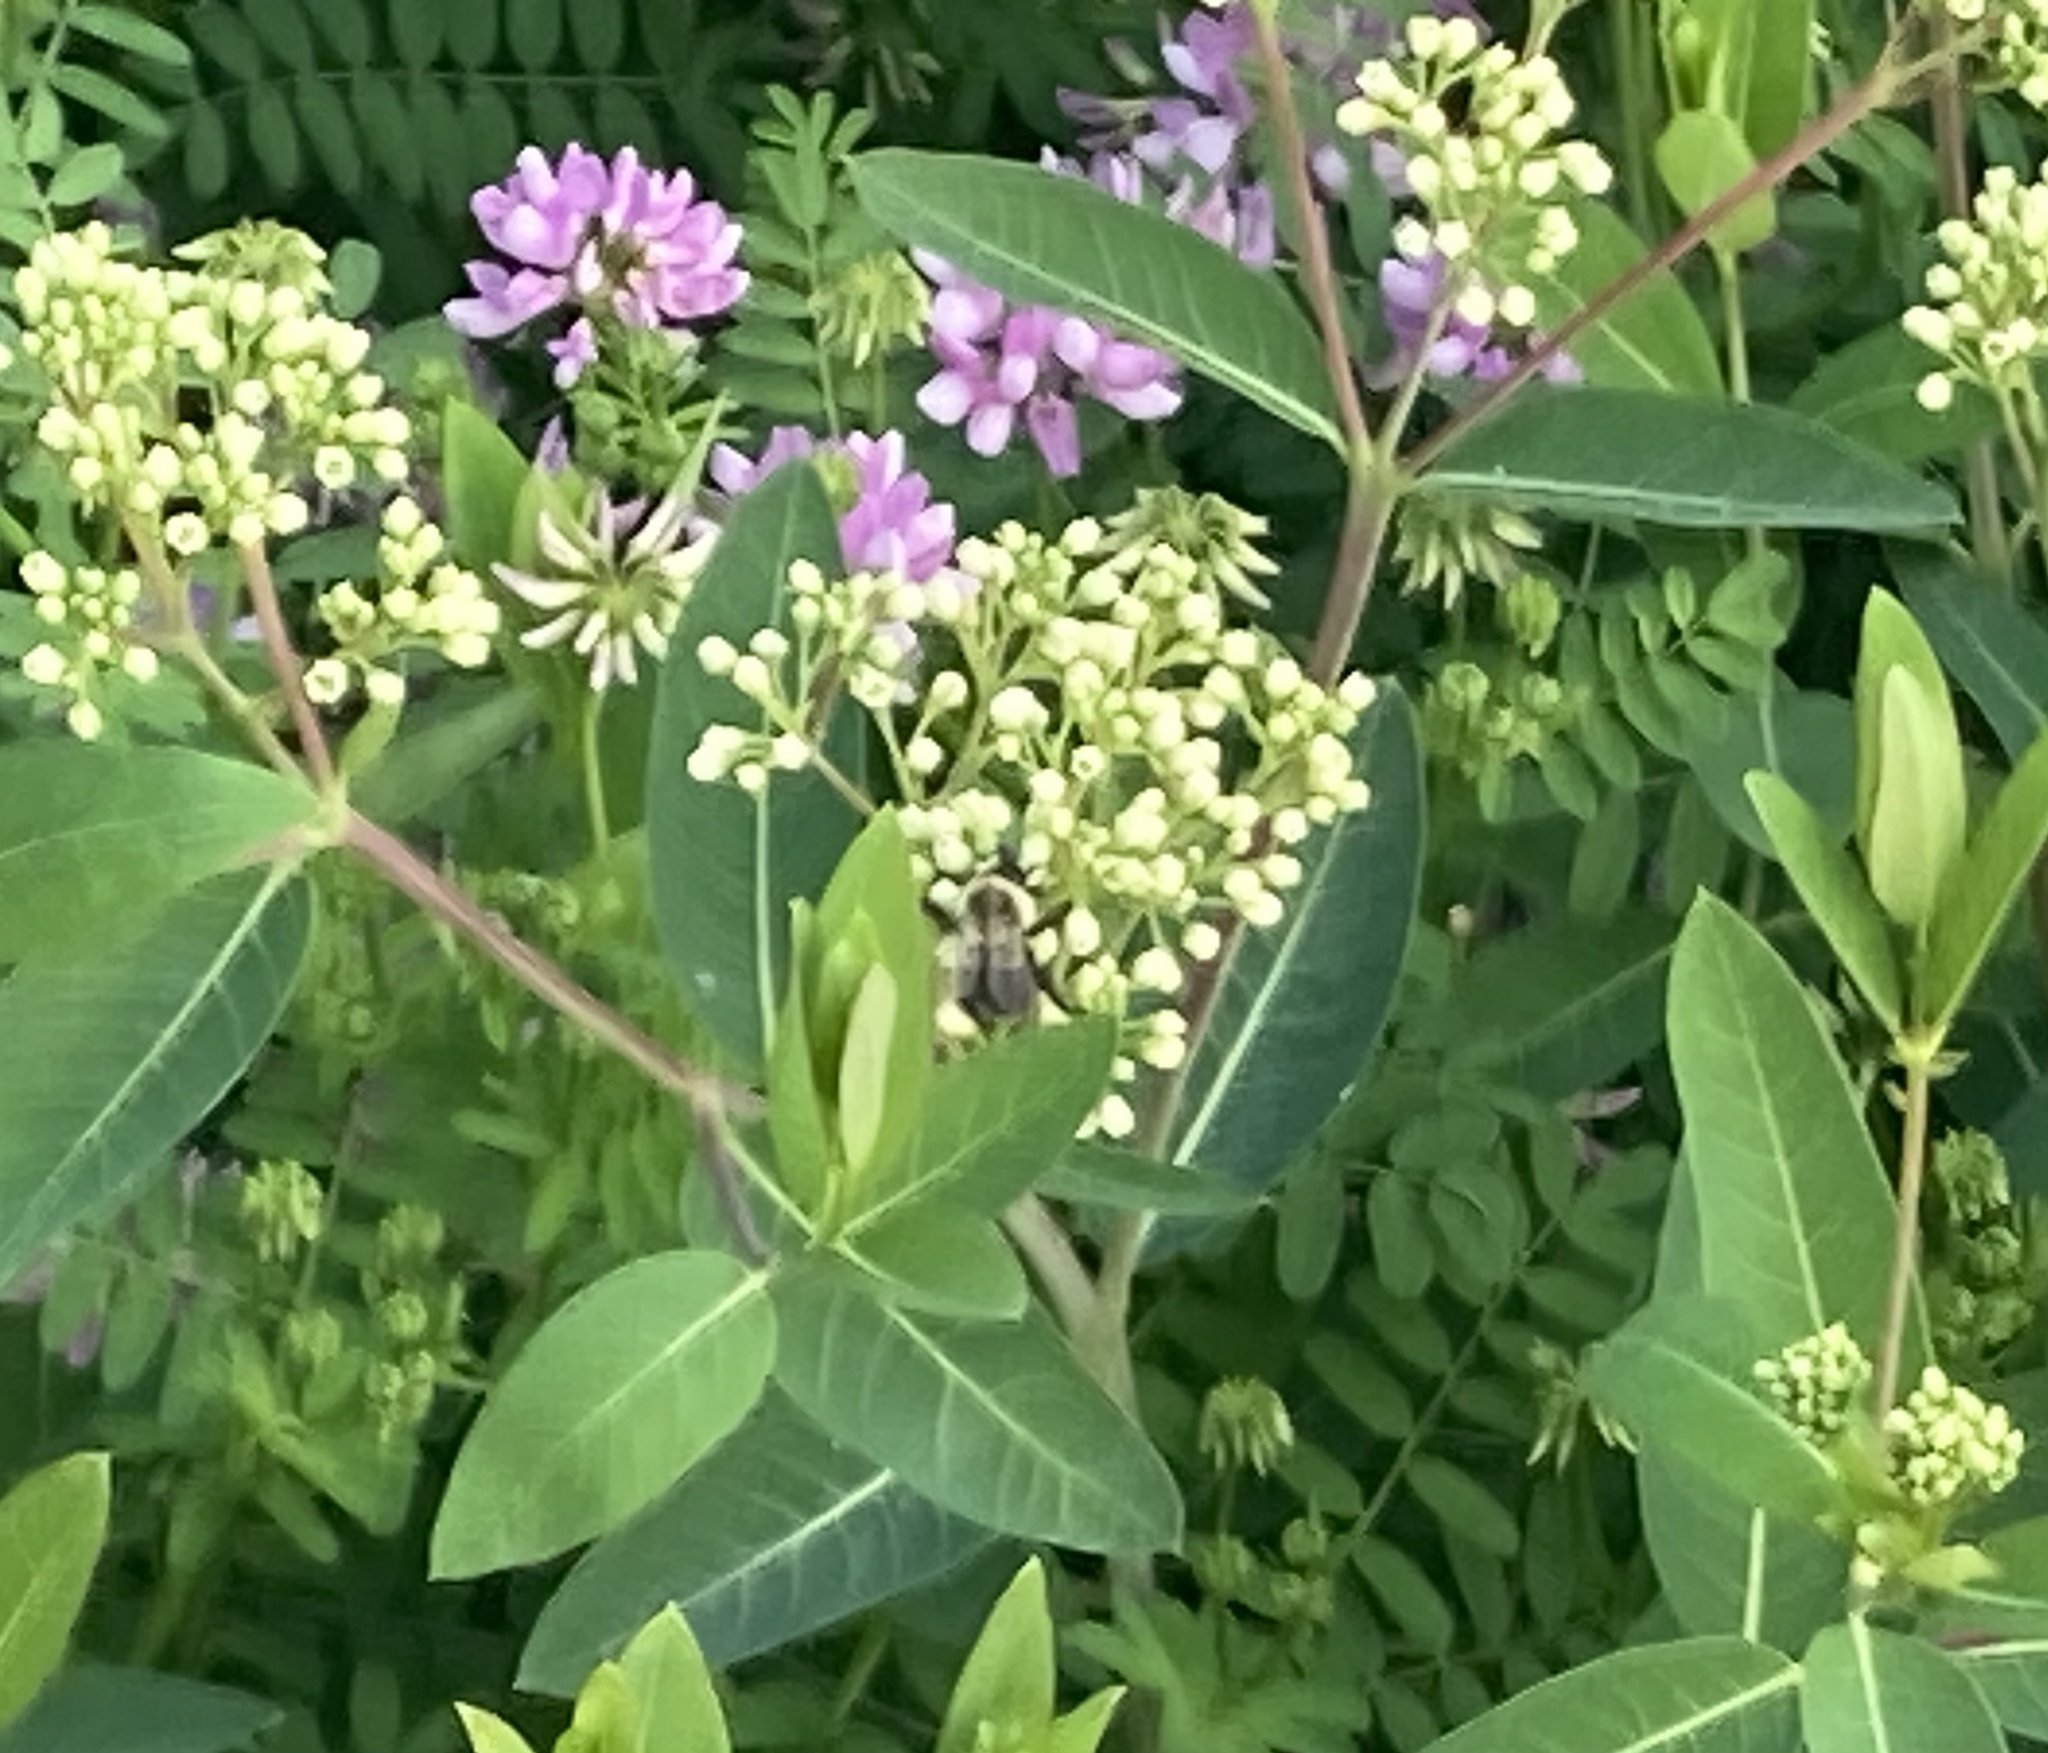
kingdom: Animalia
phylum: Arthropoda
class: Insecta
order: Hymenoptera
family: Apidae
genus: Bombus
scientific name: Bombus impatiens
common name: Common eastern bumble bee
